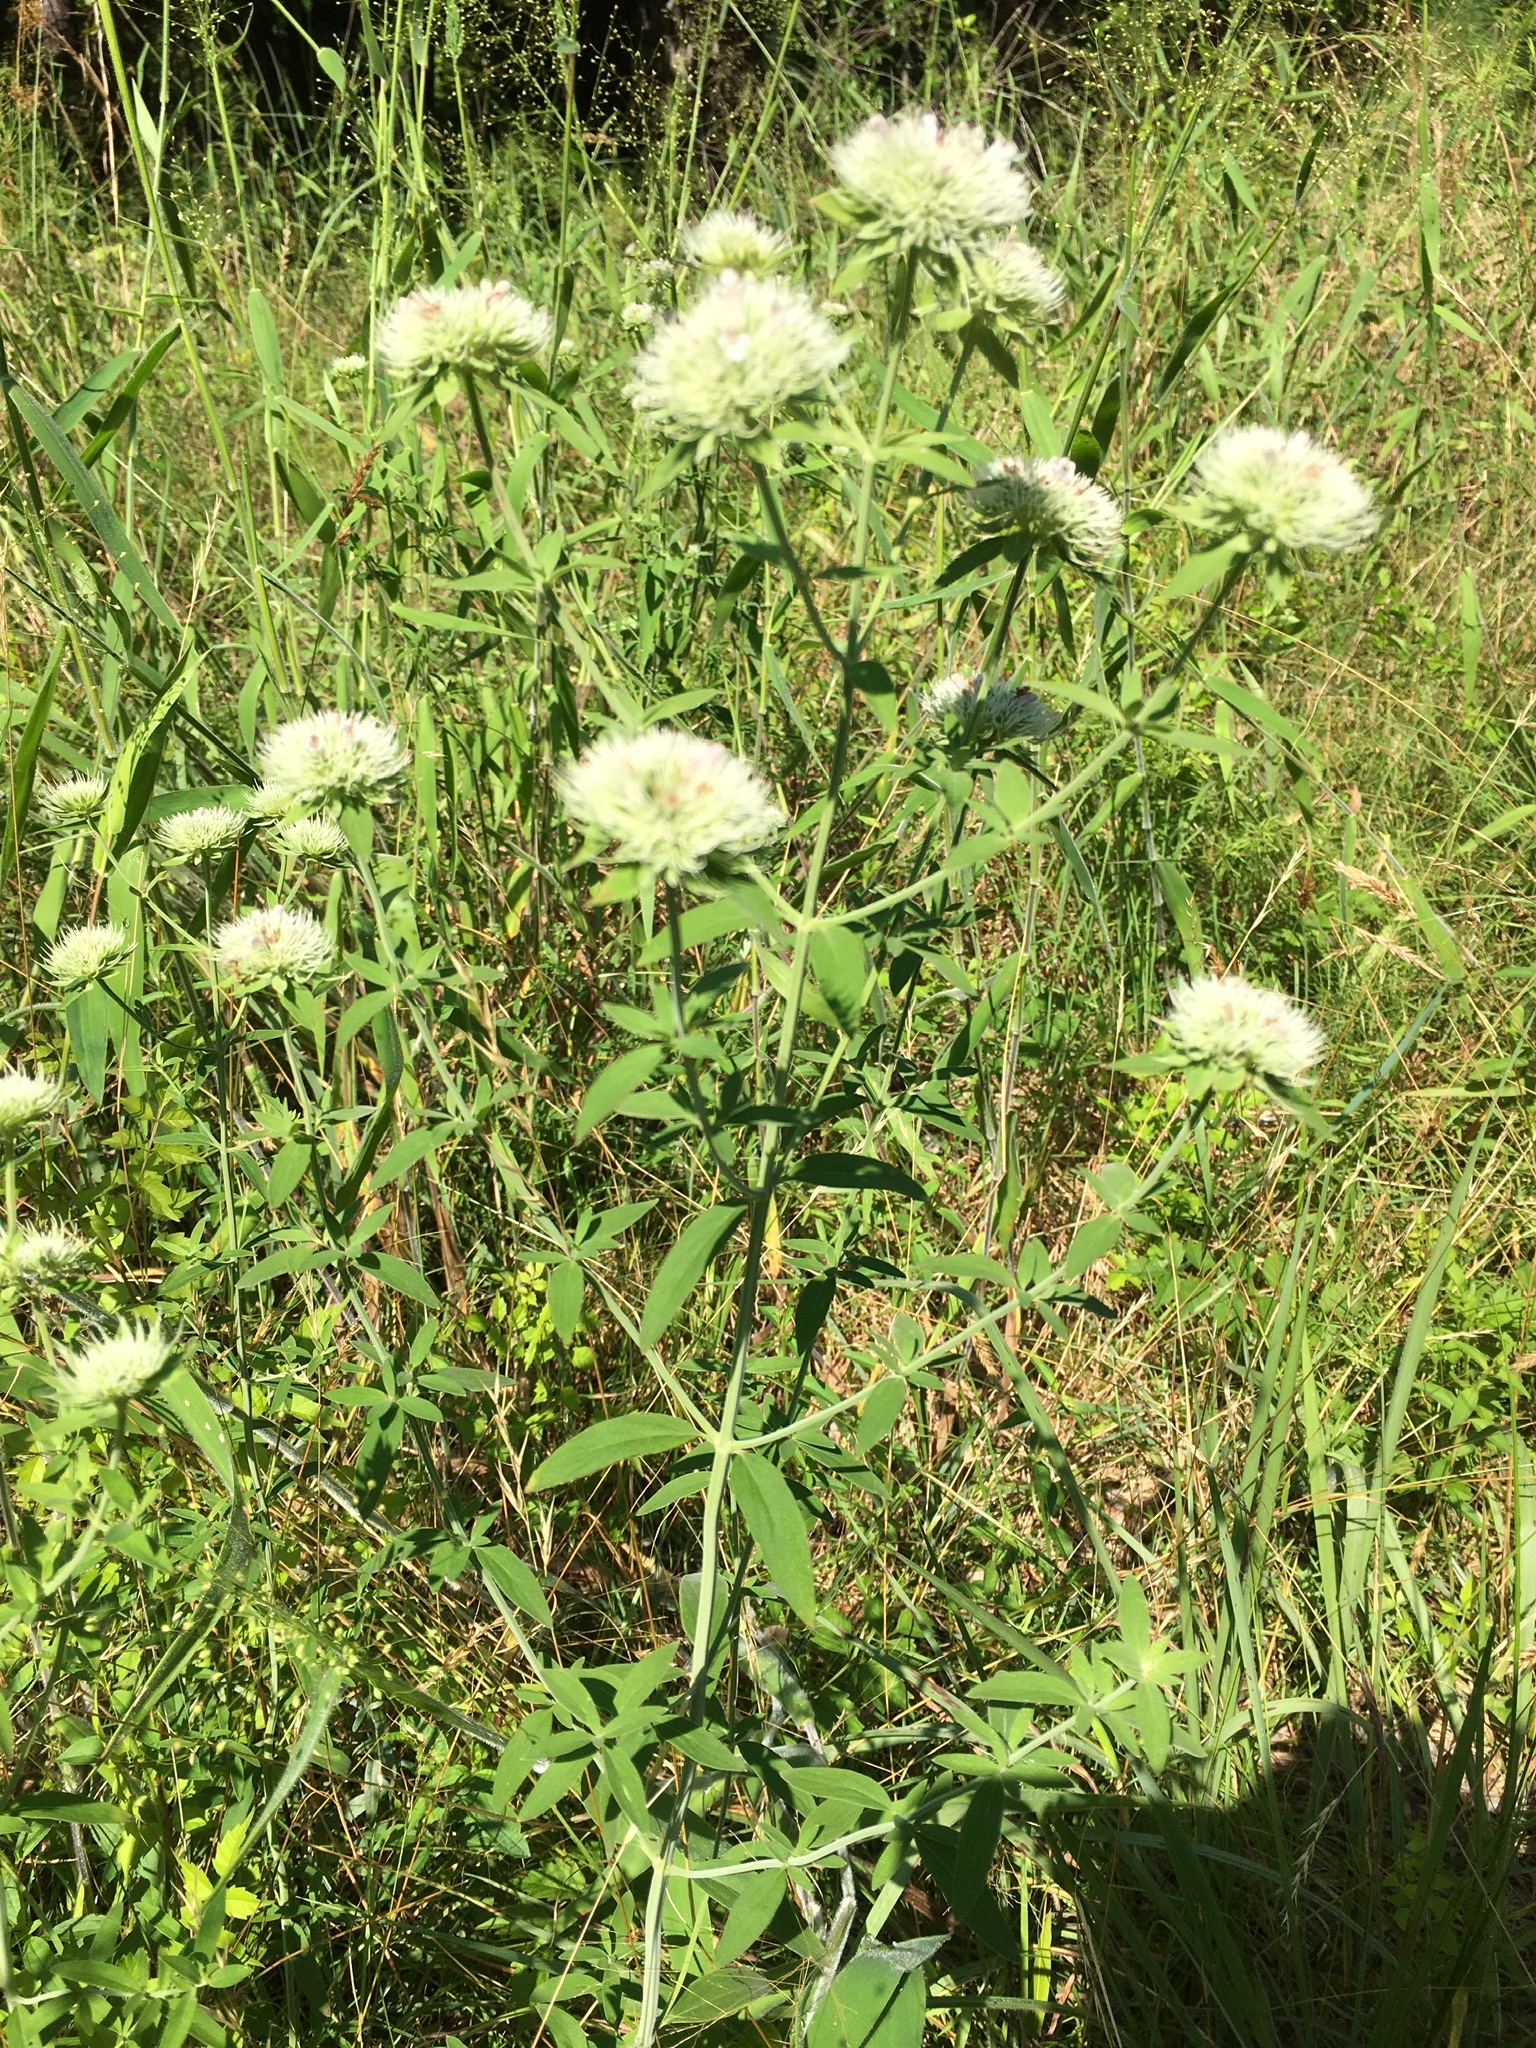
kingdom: Plantae
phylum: Tracheophyta
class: Magnoliopsida
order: Lamiales
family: Lamiaceae
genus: Pycnanthemum
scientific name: Pycnanthemum flexuosum
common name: Appalachian mountain-mint
